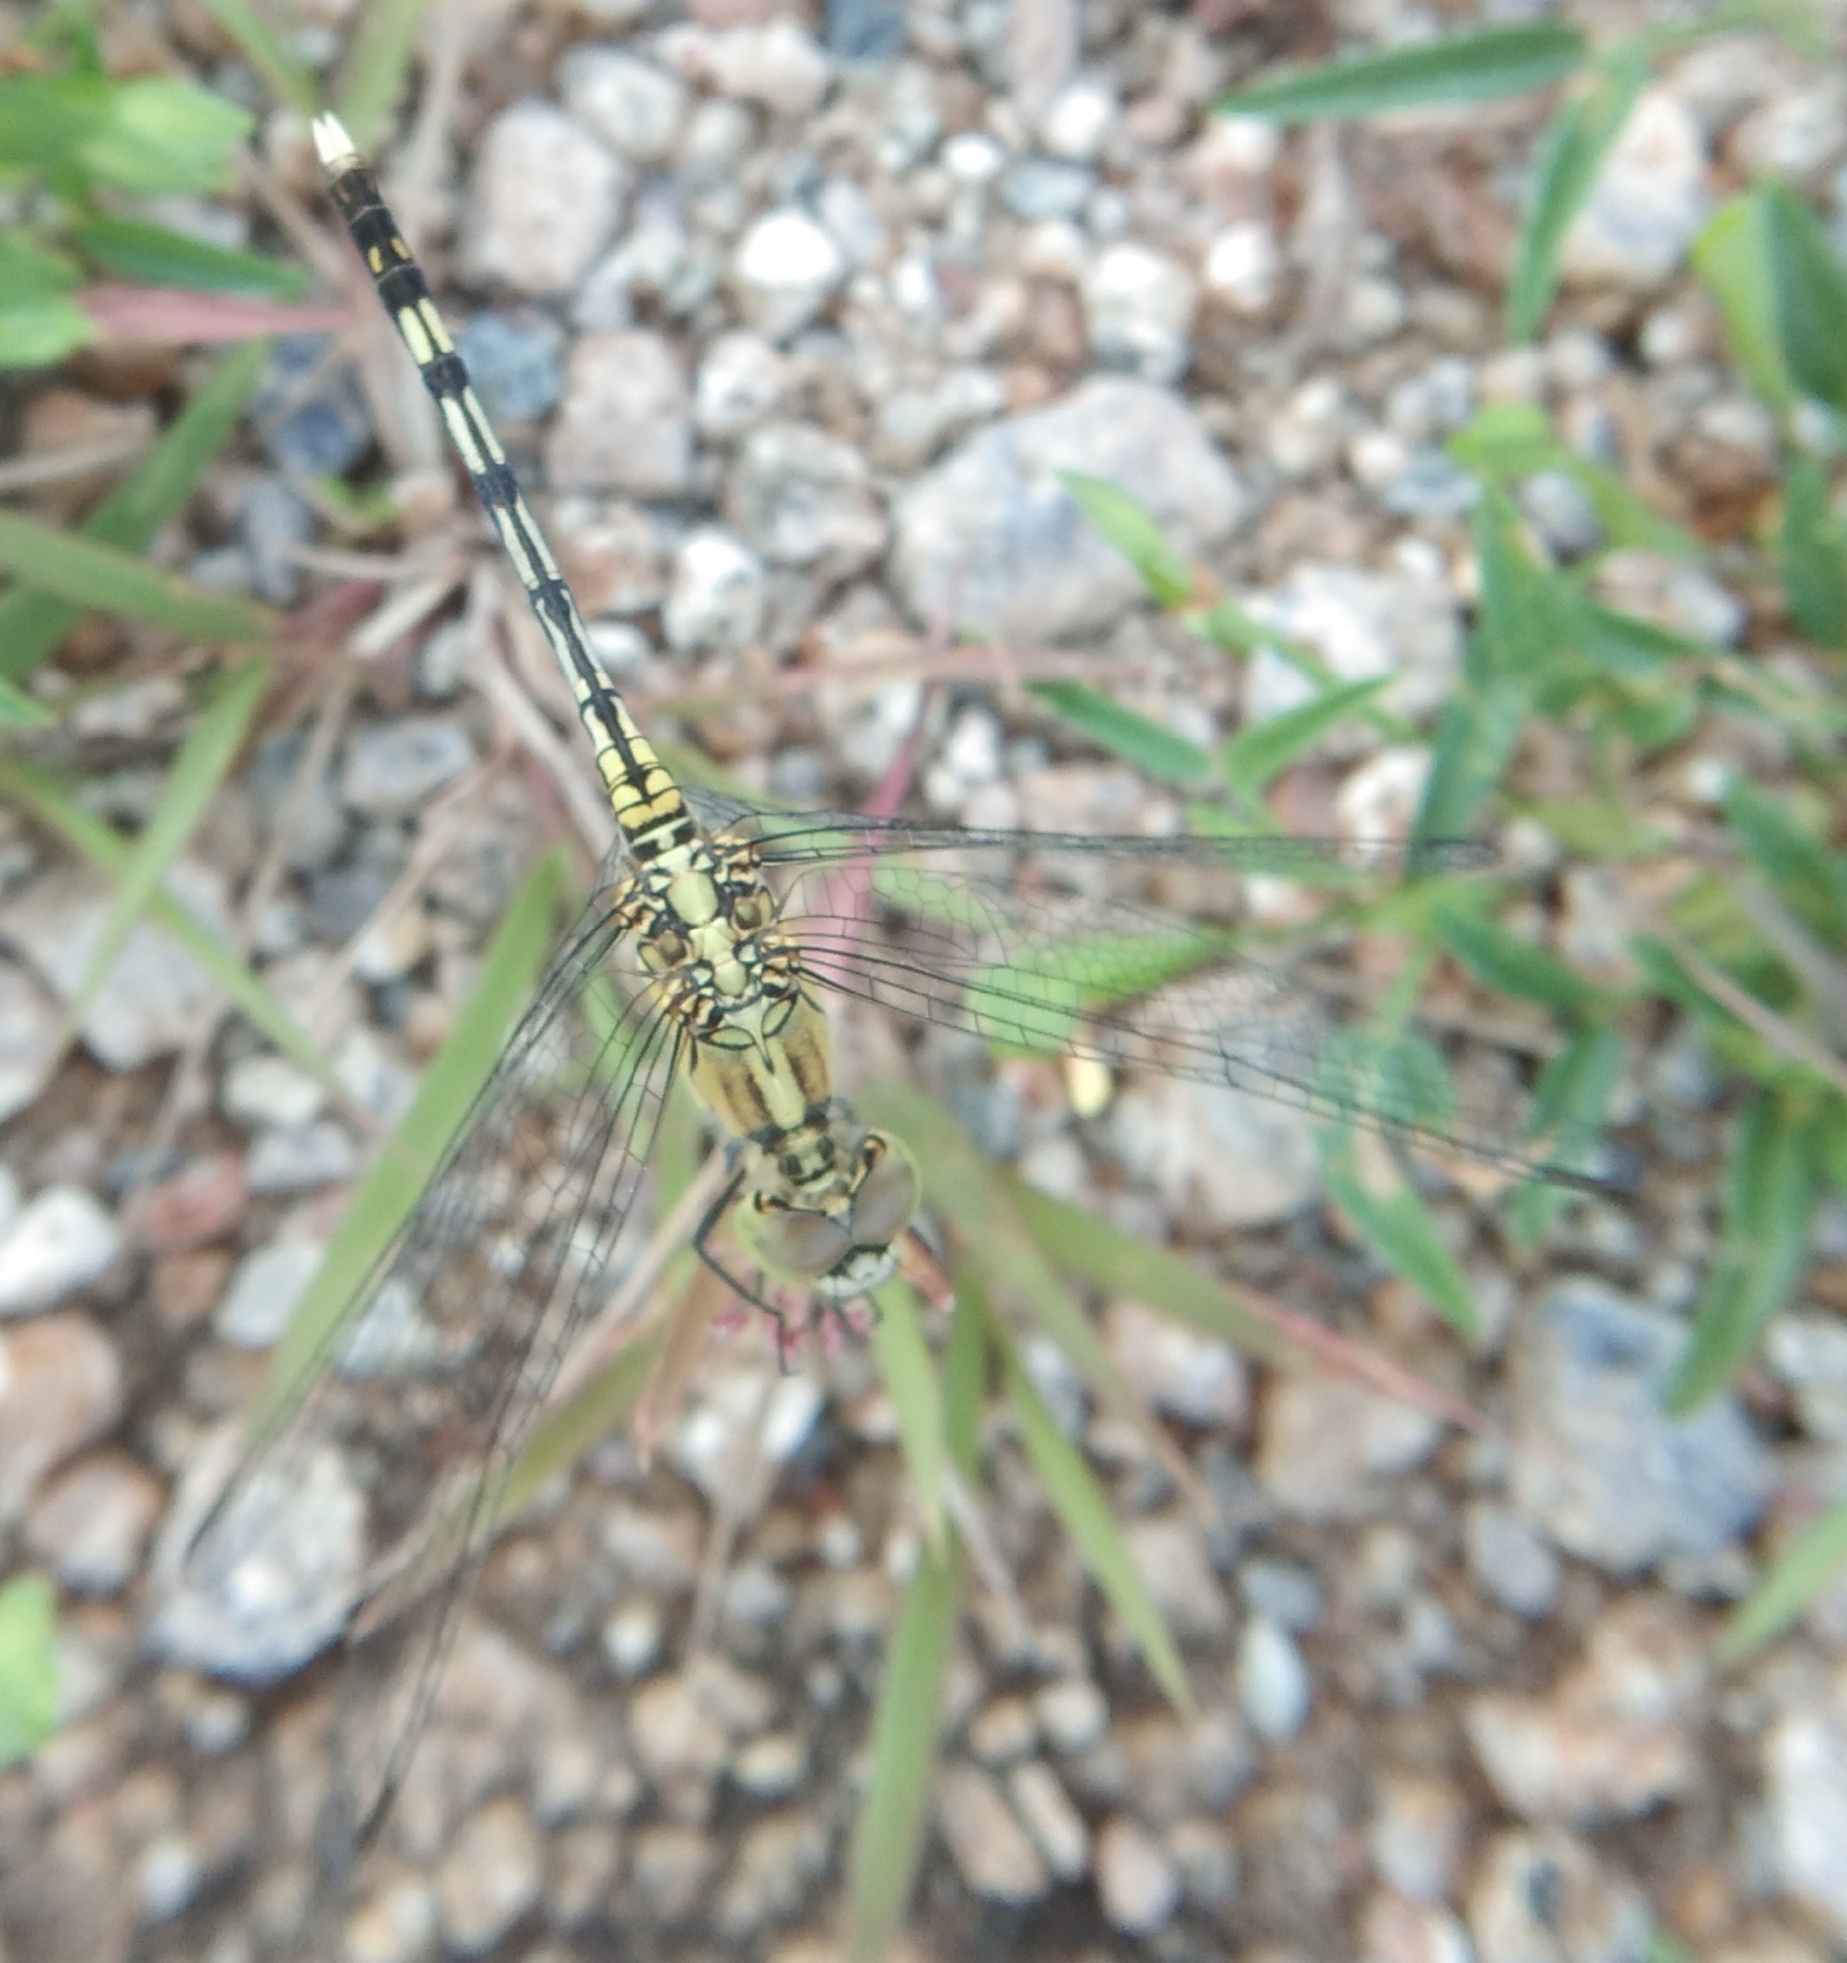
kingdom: Animalia
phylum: Arthropoda
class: Insecta
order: Odonata
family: Libellulidae
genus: Diplacodes
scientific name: Diplacodes trivialis
